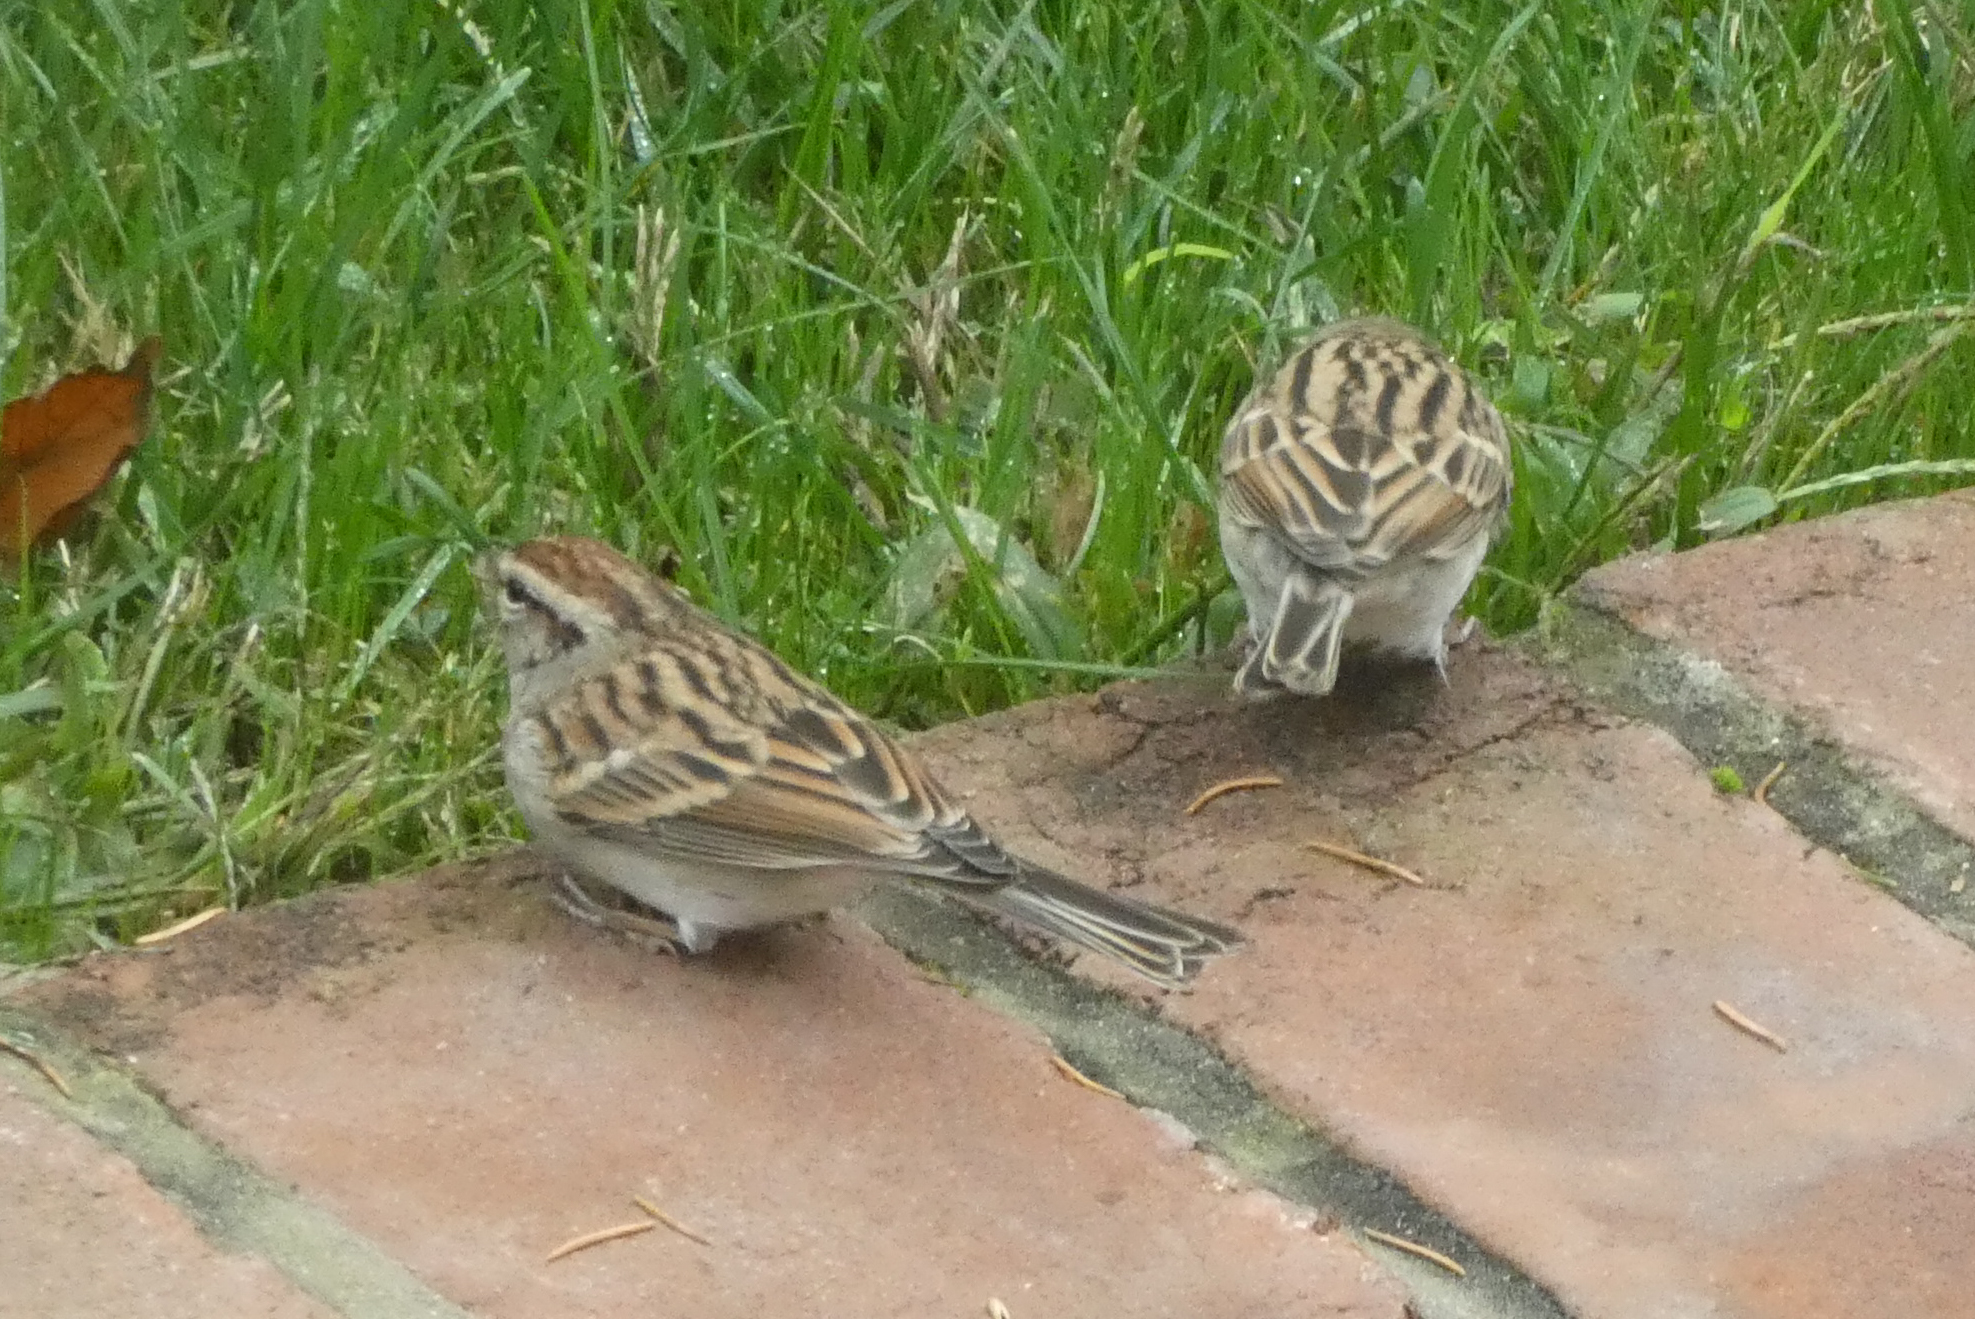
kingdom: Animalia
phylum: Chordata
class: Aves
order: Passeriformes
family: Passerellidae
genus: Spizella
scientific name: Spizella passerina
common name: Chipping sparrow
